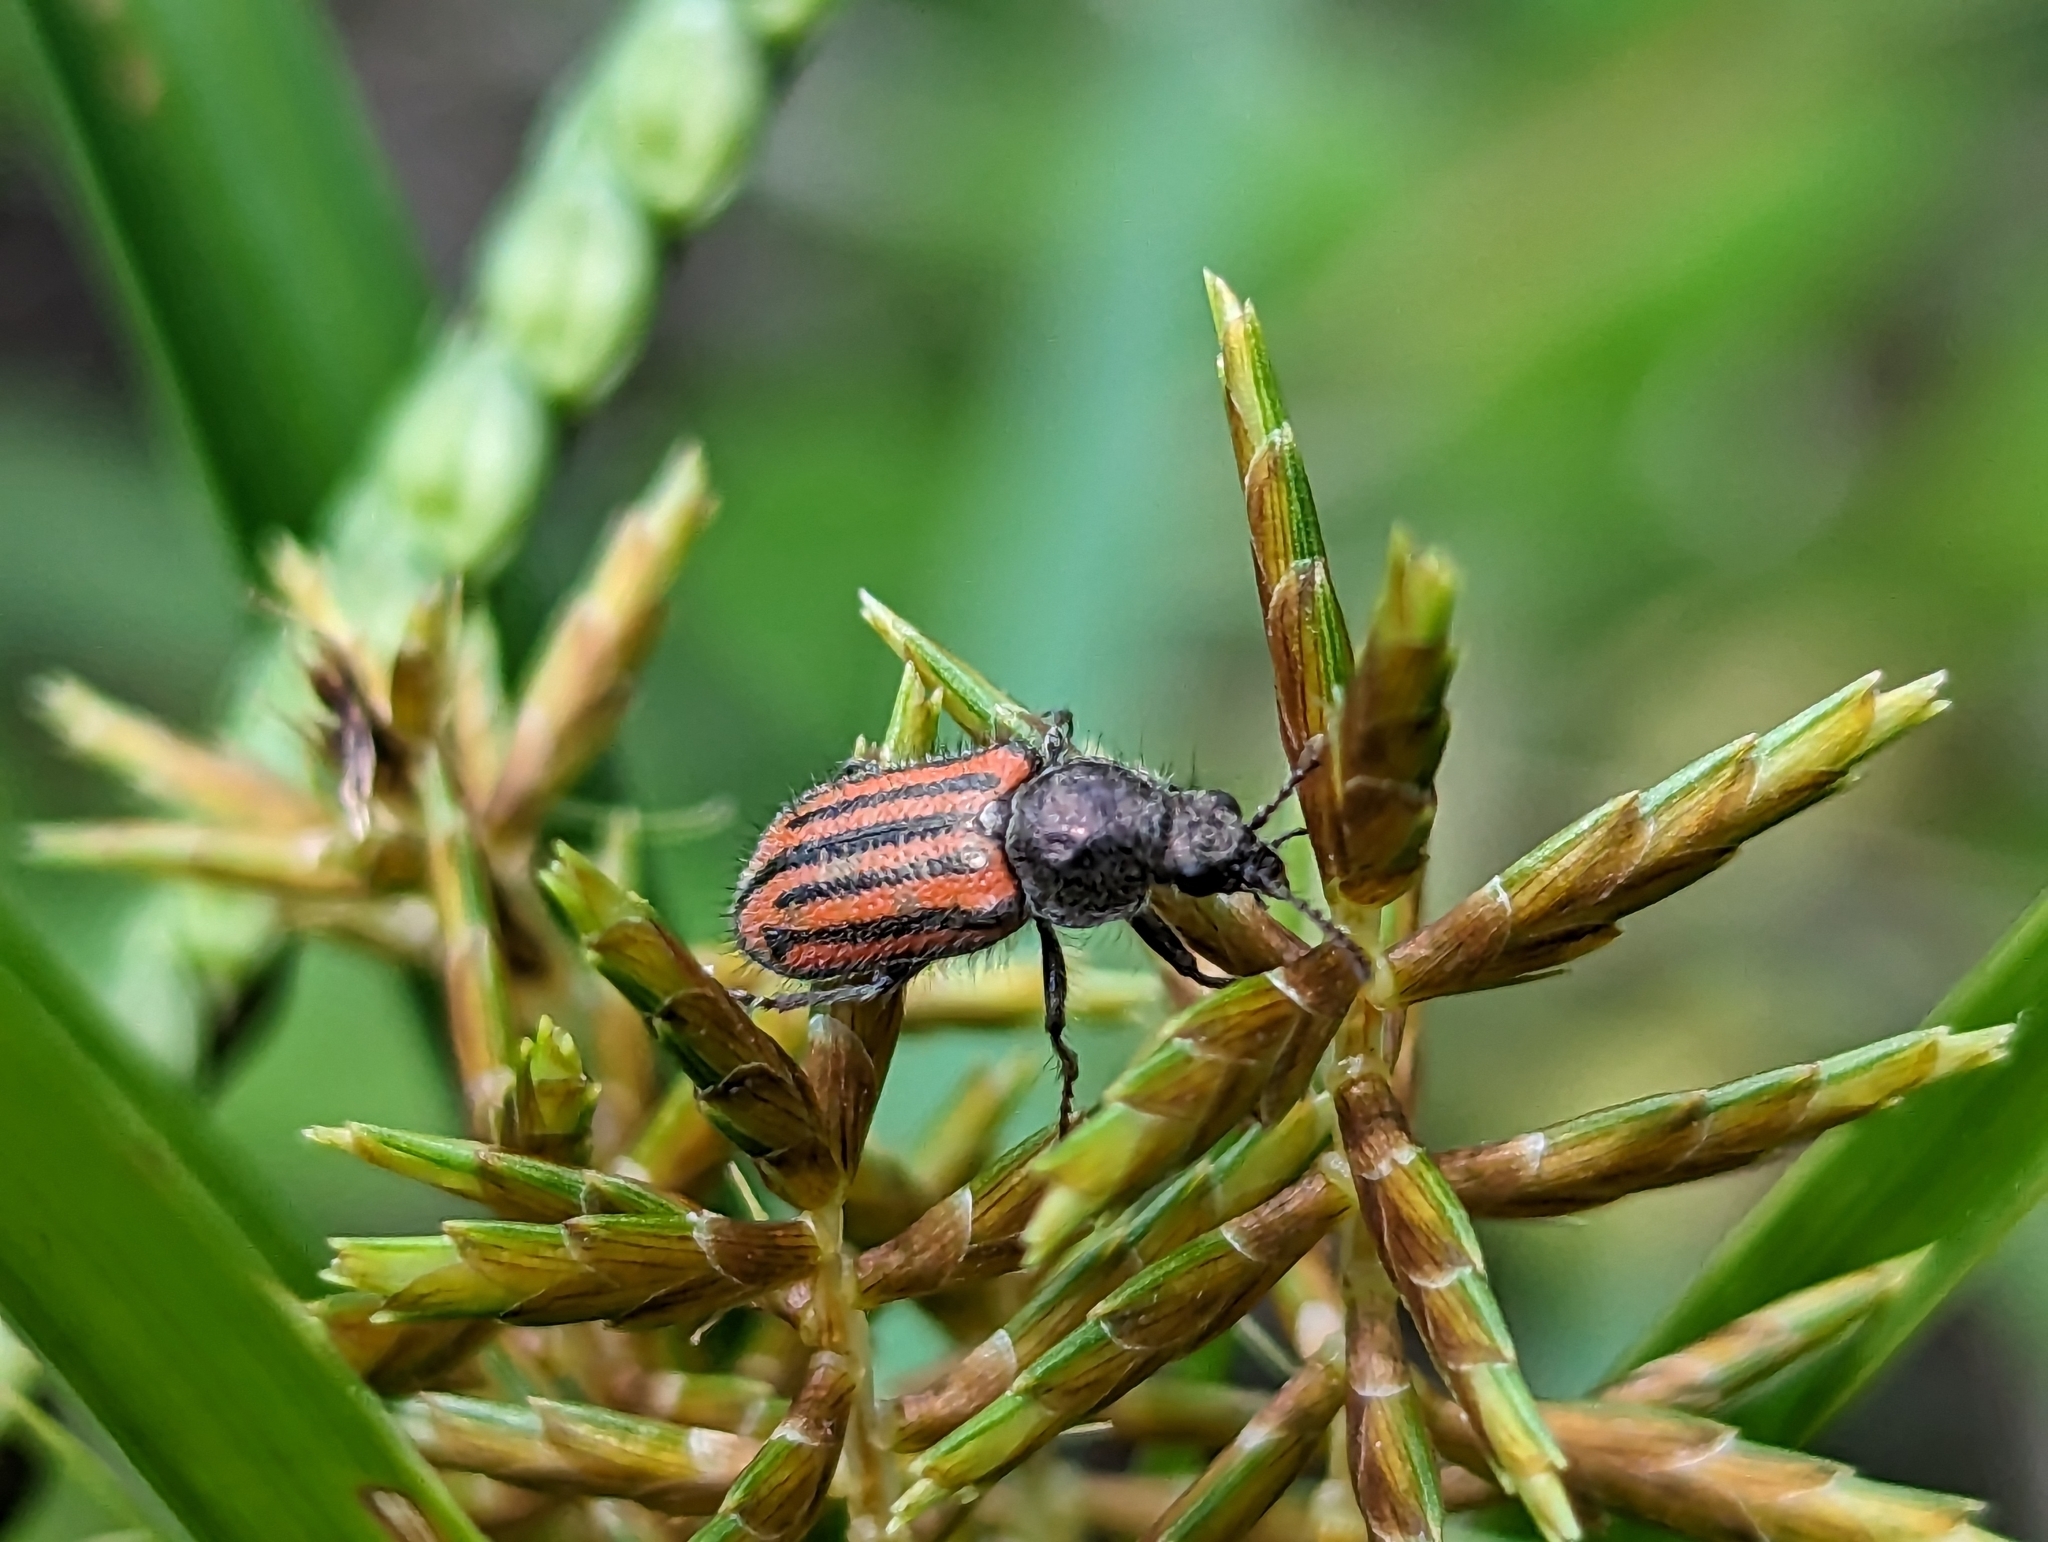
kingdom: Animalia
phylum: Arthropoda
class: Insecta
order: Coleoptera
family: Melyridae
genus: Astylus
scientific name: Astylus
